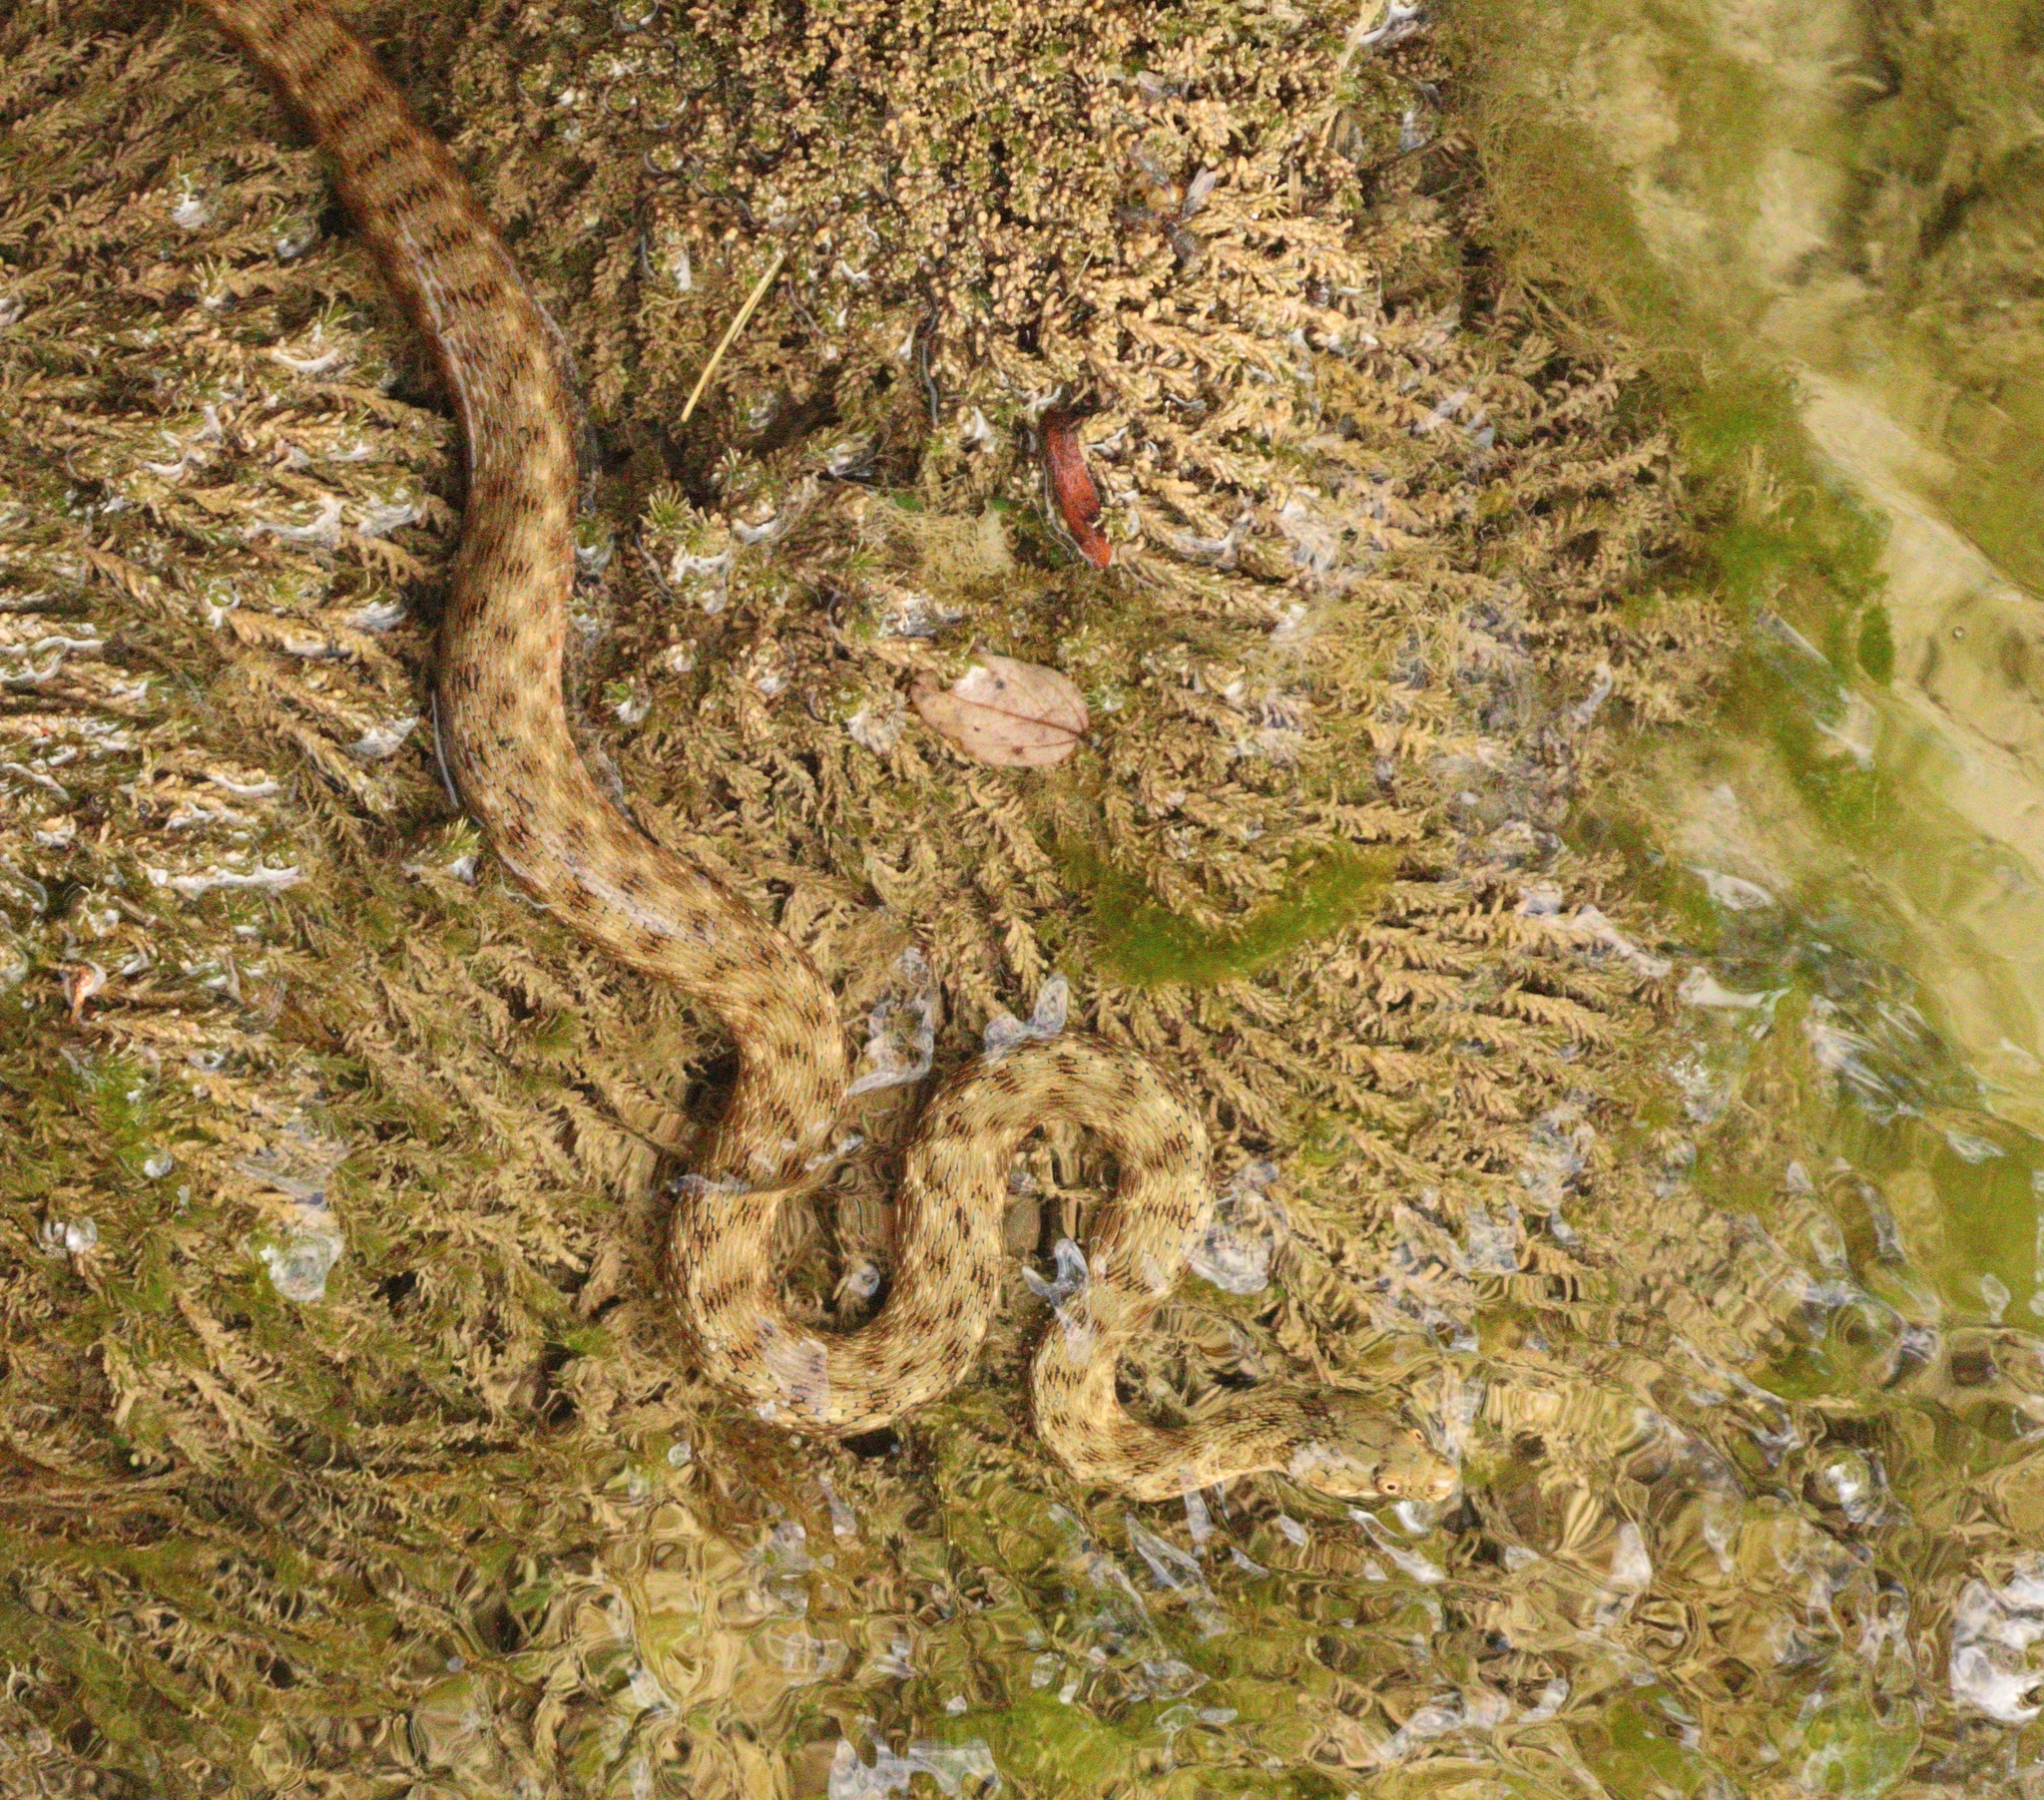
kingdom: Animalia
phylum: Chordata
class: Squamata
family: Colubridae
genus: Natrix
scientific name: Natrix tessellata
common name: Dice snake
